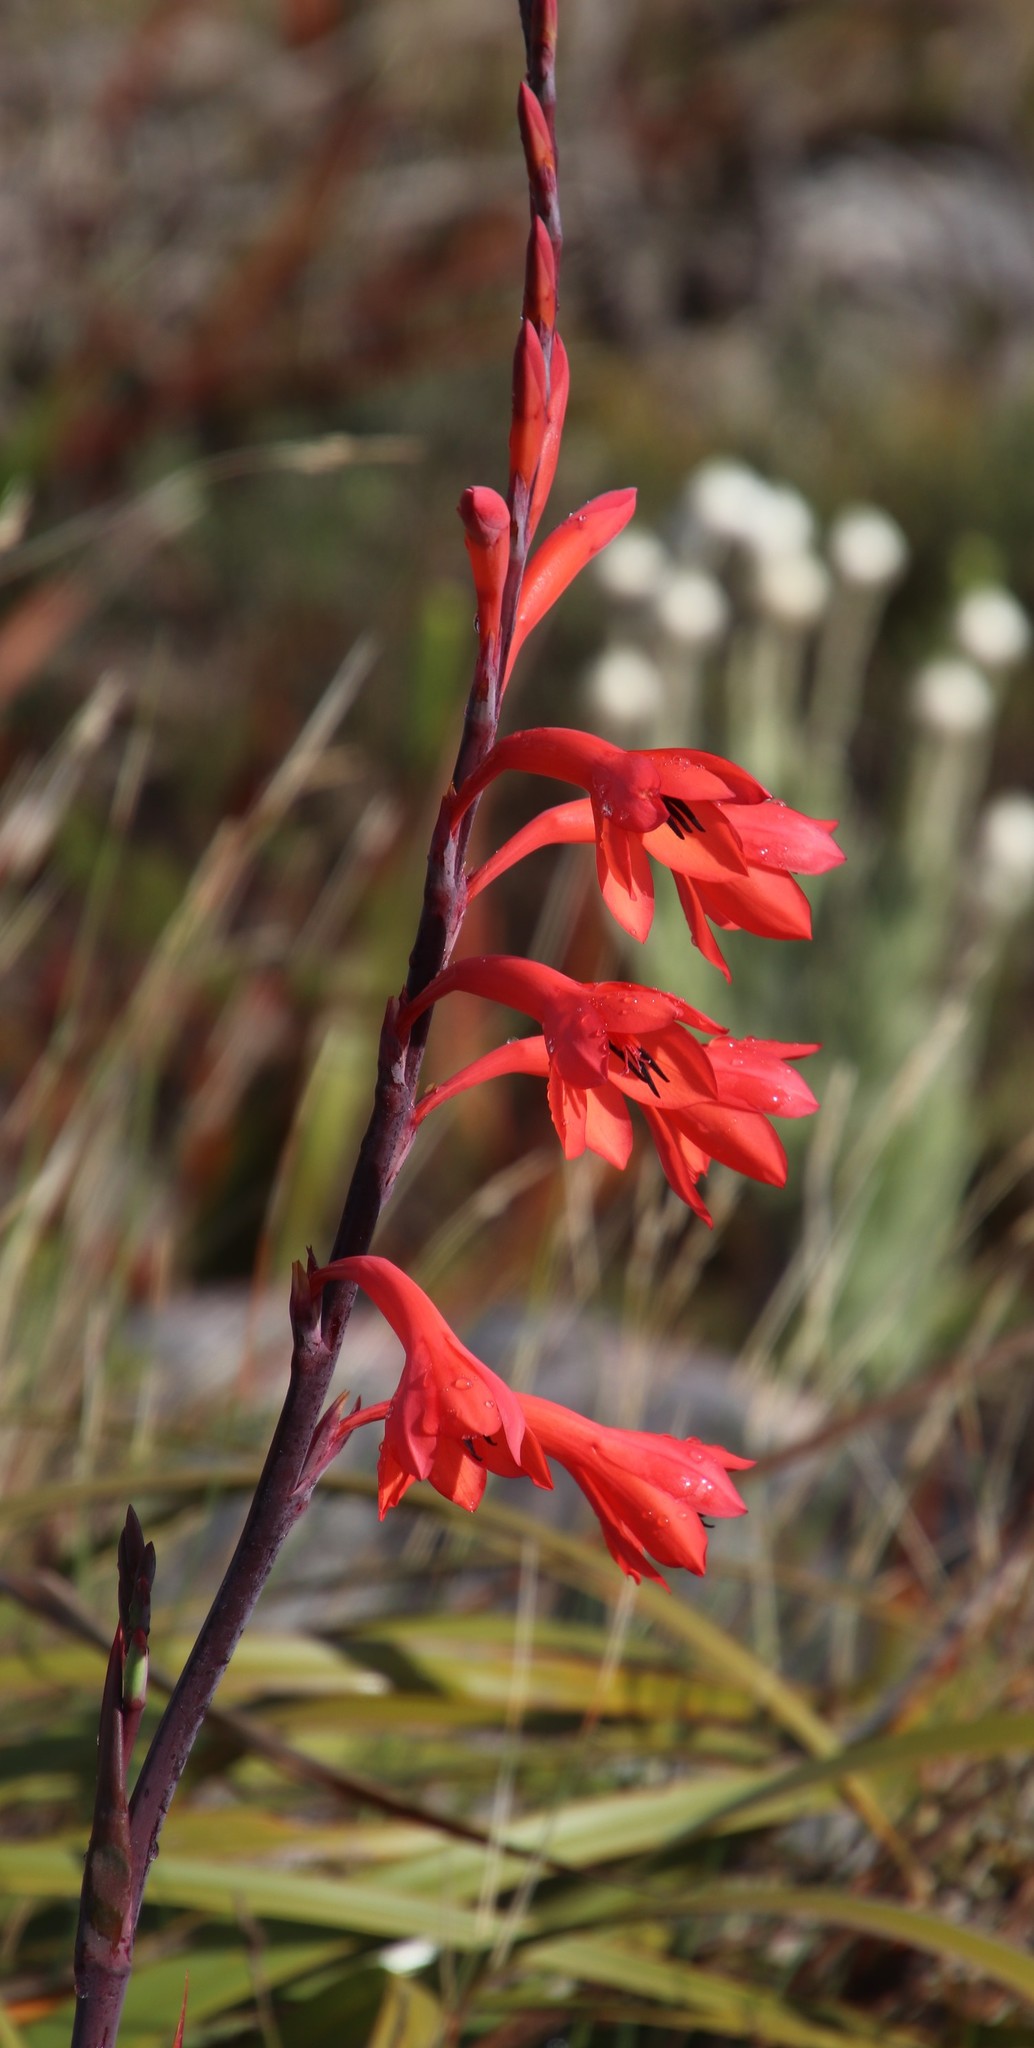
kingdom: Plantae
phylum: Tracheophyta
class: Liliopsida
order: Asparagales
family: Iridaceae
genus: Watsonia
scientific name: Watsonia tabularis
